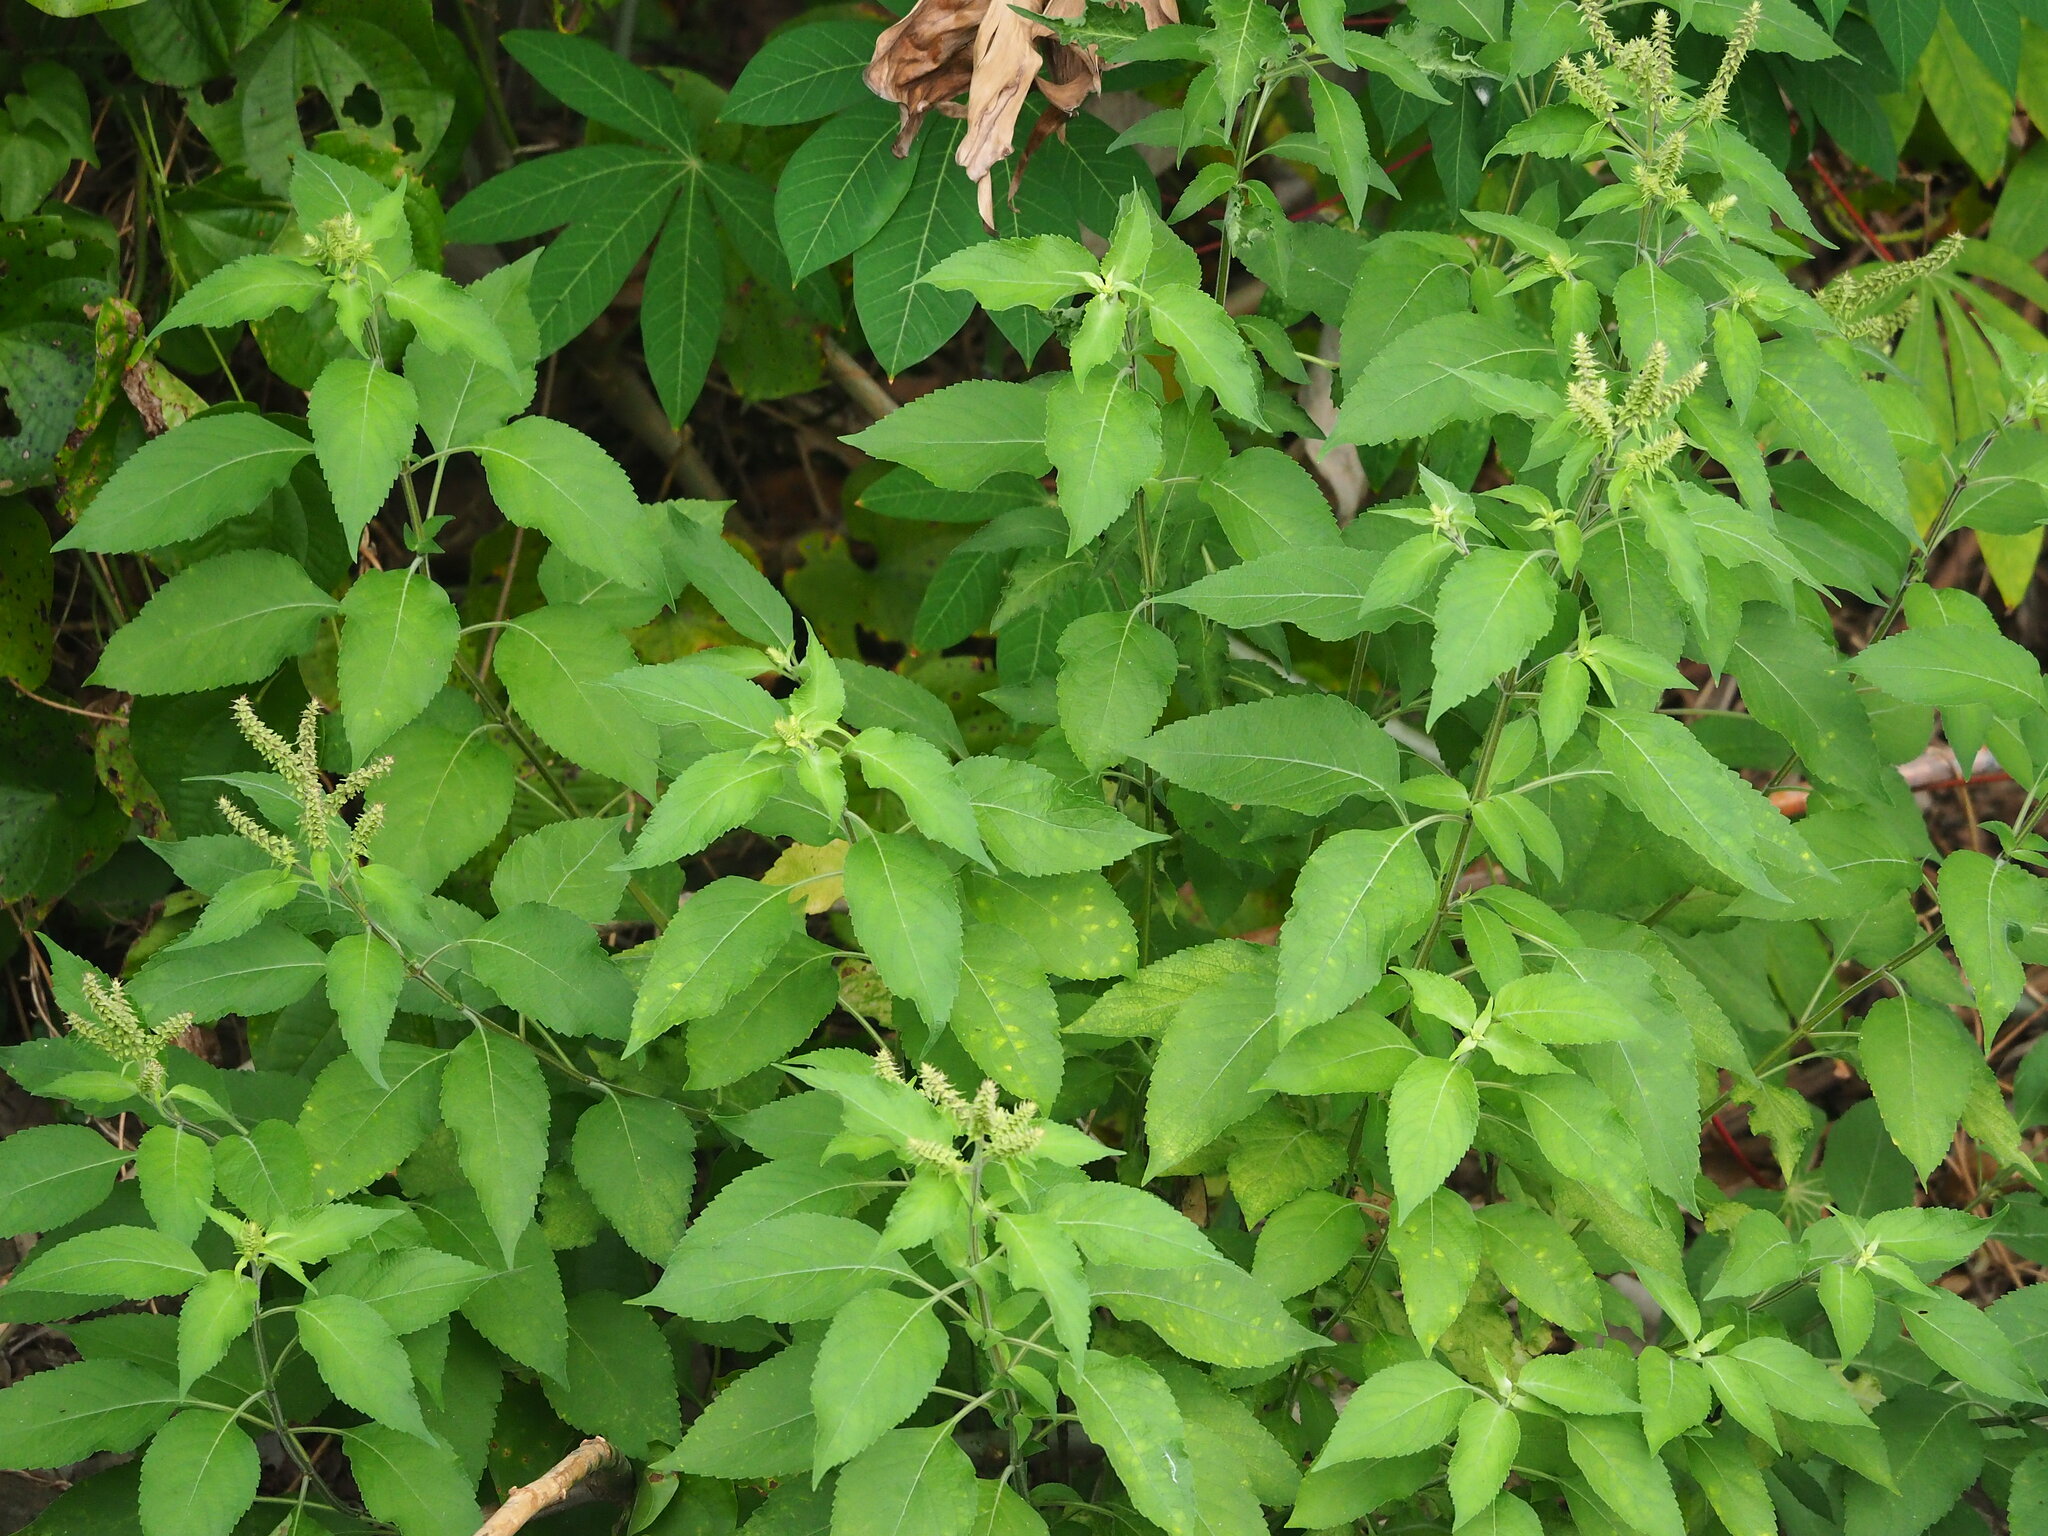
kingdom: Plantae
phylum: Tracheophyta
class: Magnoliopsida
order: Lamiales
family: Lamiaceae
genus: Ocimum
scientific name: Ocimum gratissimum
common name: African basil
